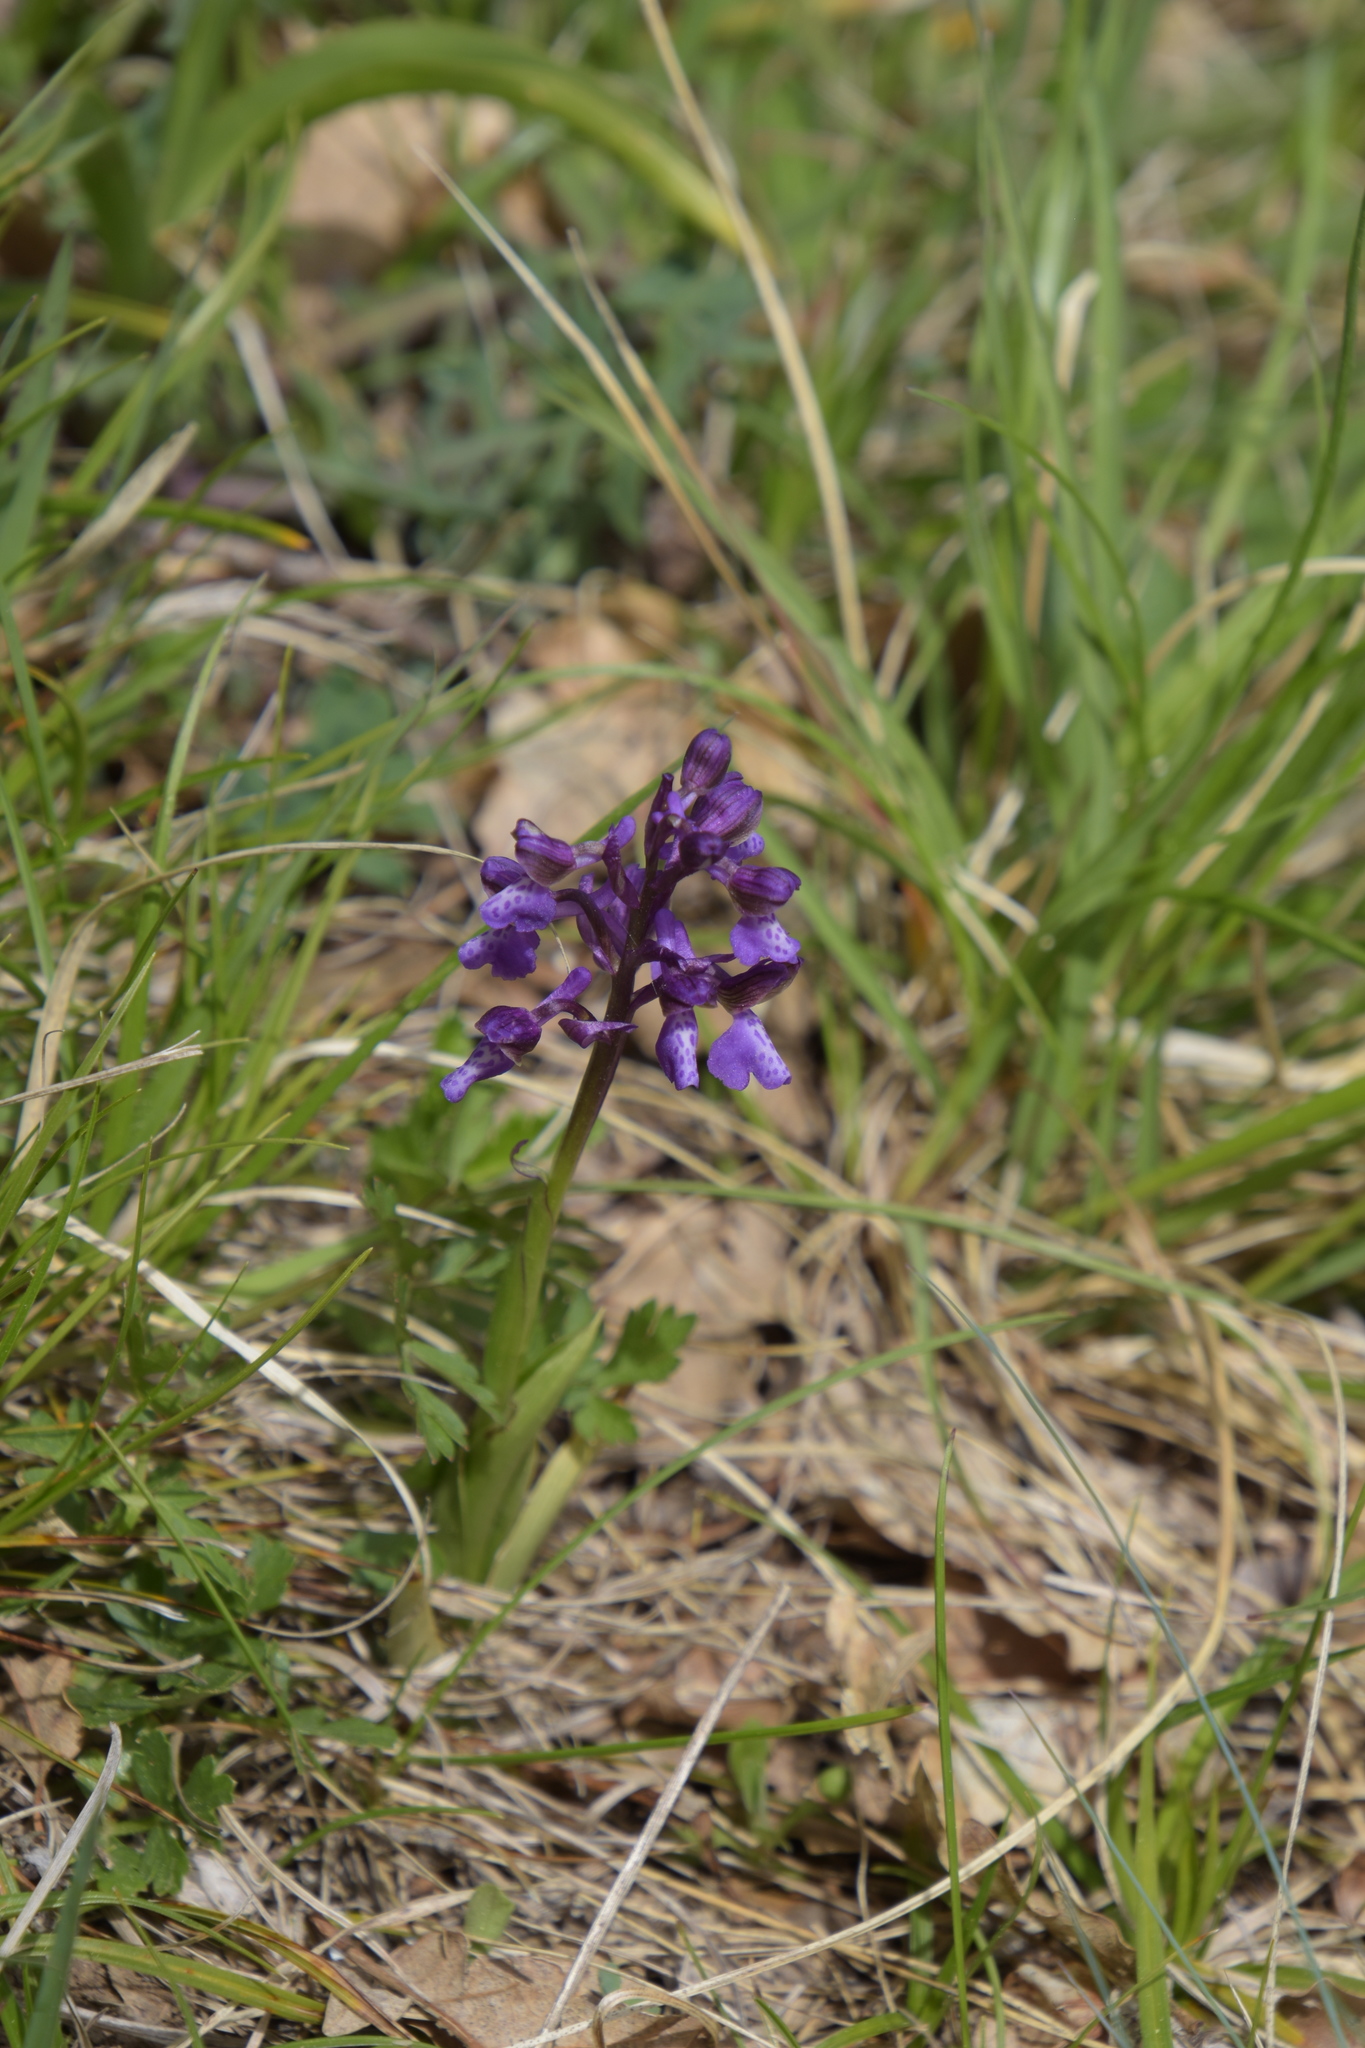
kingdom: Plantae
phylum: Tracheophyta
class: Liliopsida
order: Asparagales
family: Orchidaceae
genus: Anacamptis
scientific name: Anacamptis morio
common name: Green-winged orchid
